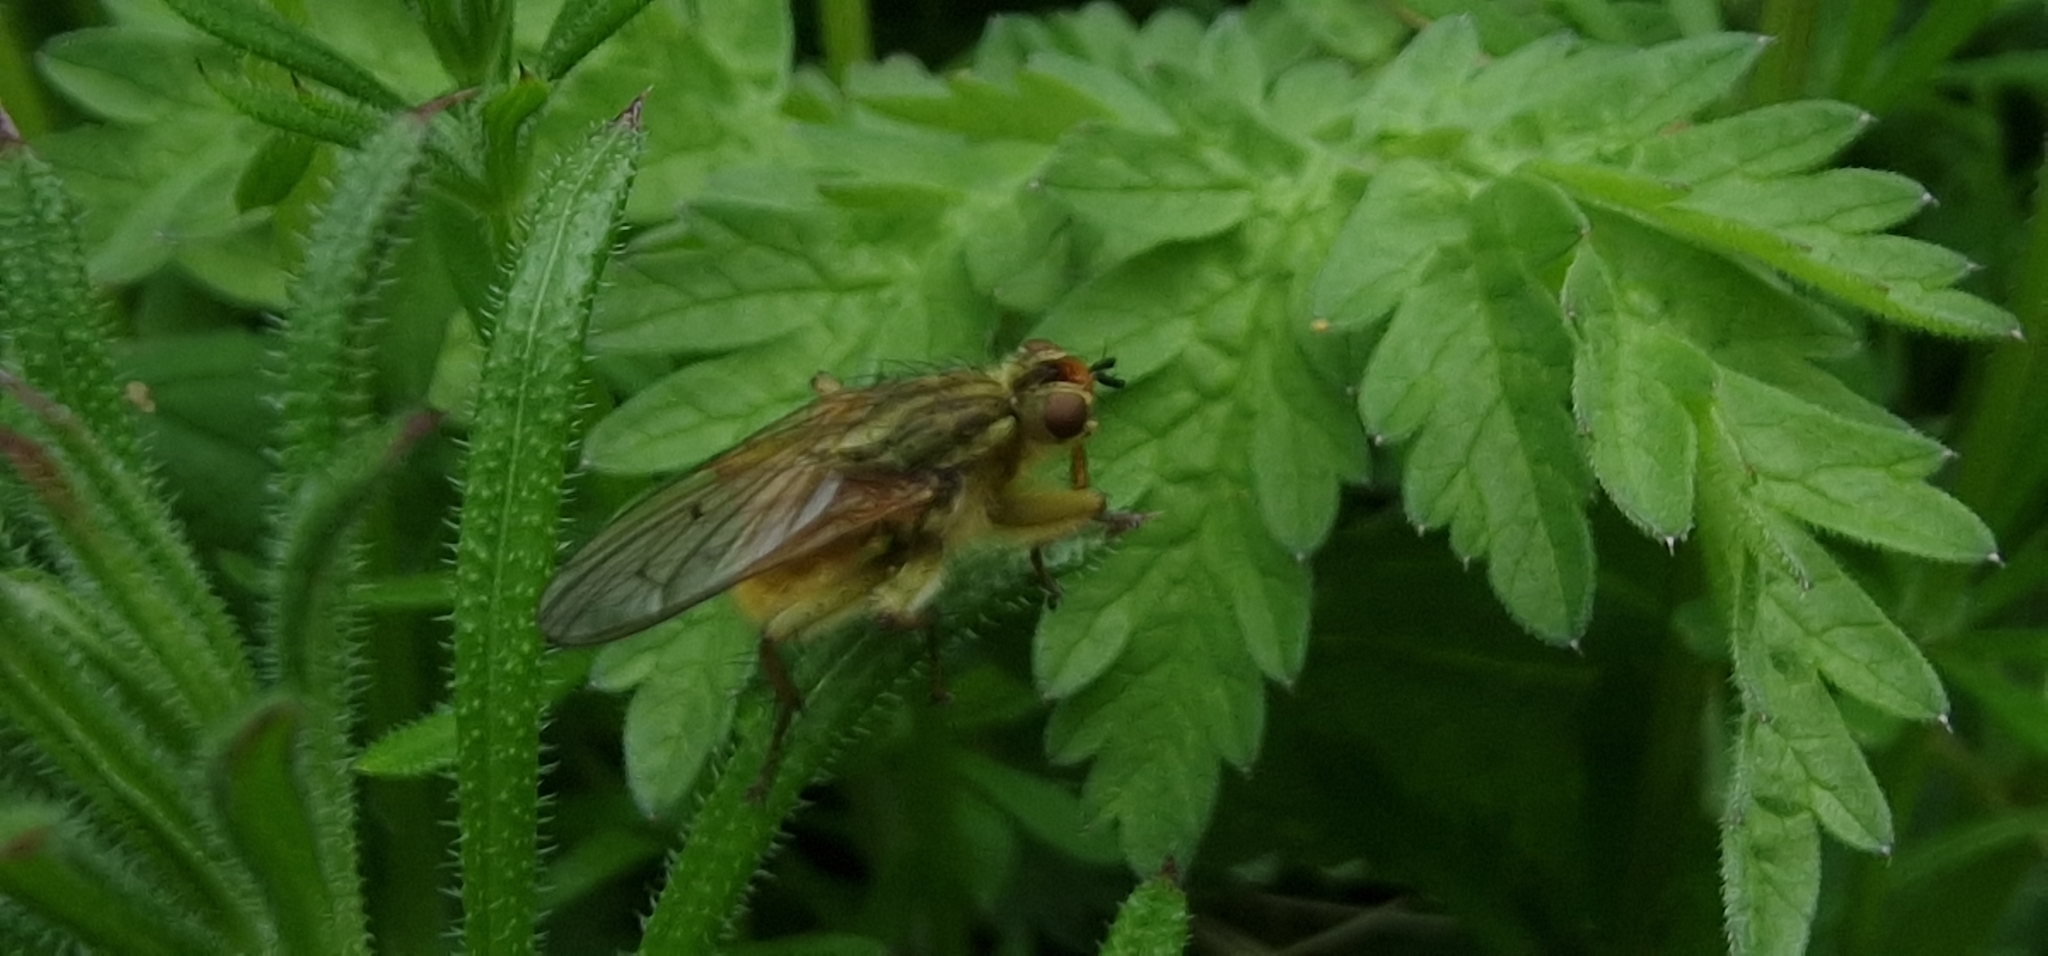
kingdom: Animalia
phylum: Arthropoda
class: Insecta
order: Diptera
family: Scathophagidae
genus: Scathophaga
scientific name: Scathophaga stercoraria
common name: Yellow dung fly
